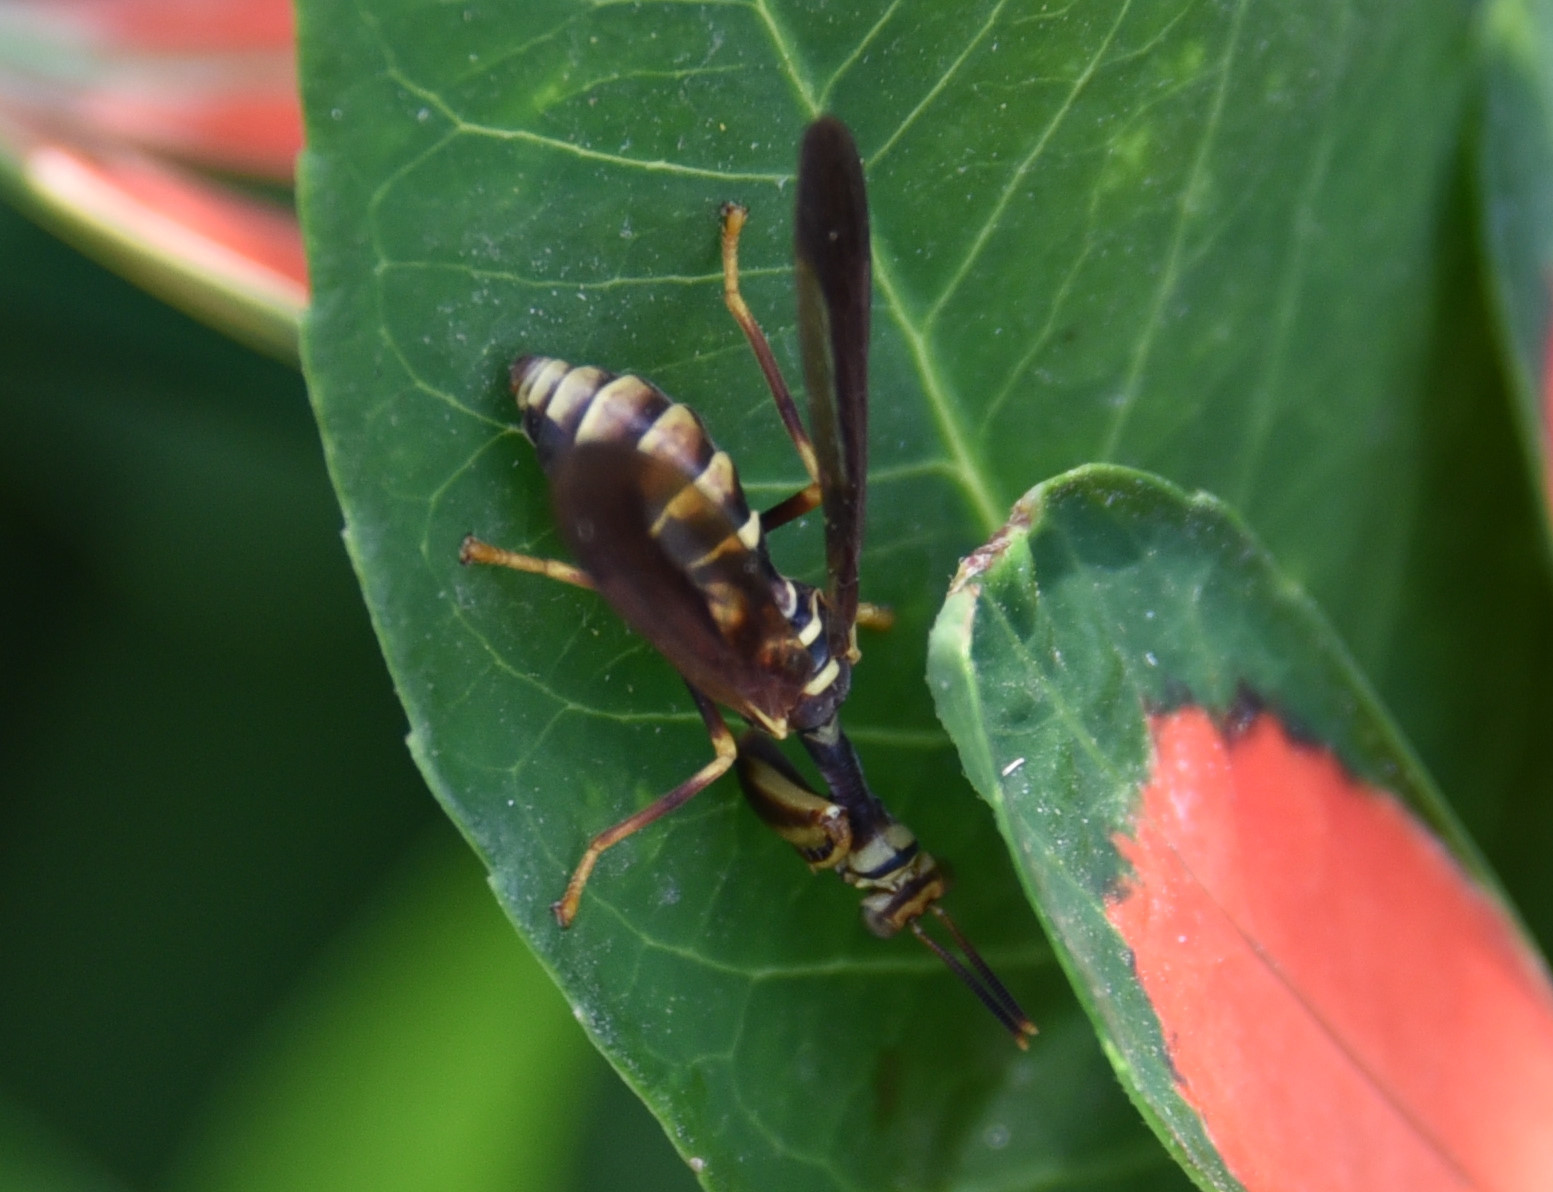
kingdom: Animalia
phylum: Arthropoda
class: Insecta
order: Neuroptera
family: Mantispidae
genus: Climaciella
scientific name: Climaciella brunnea
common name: Brown wasp mantidfly
